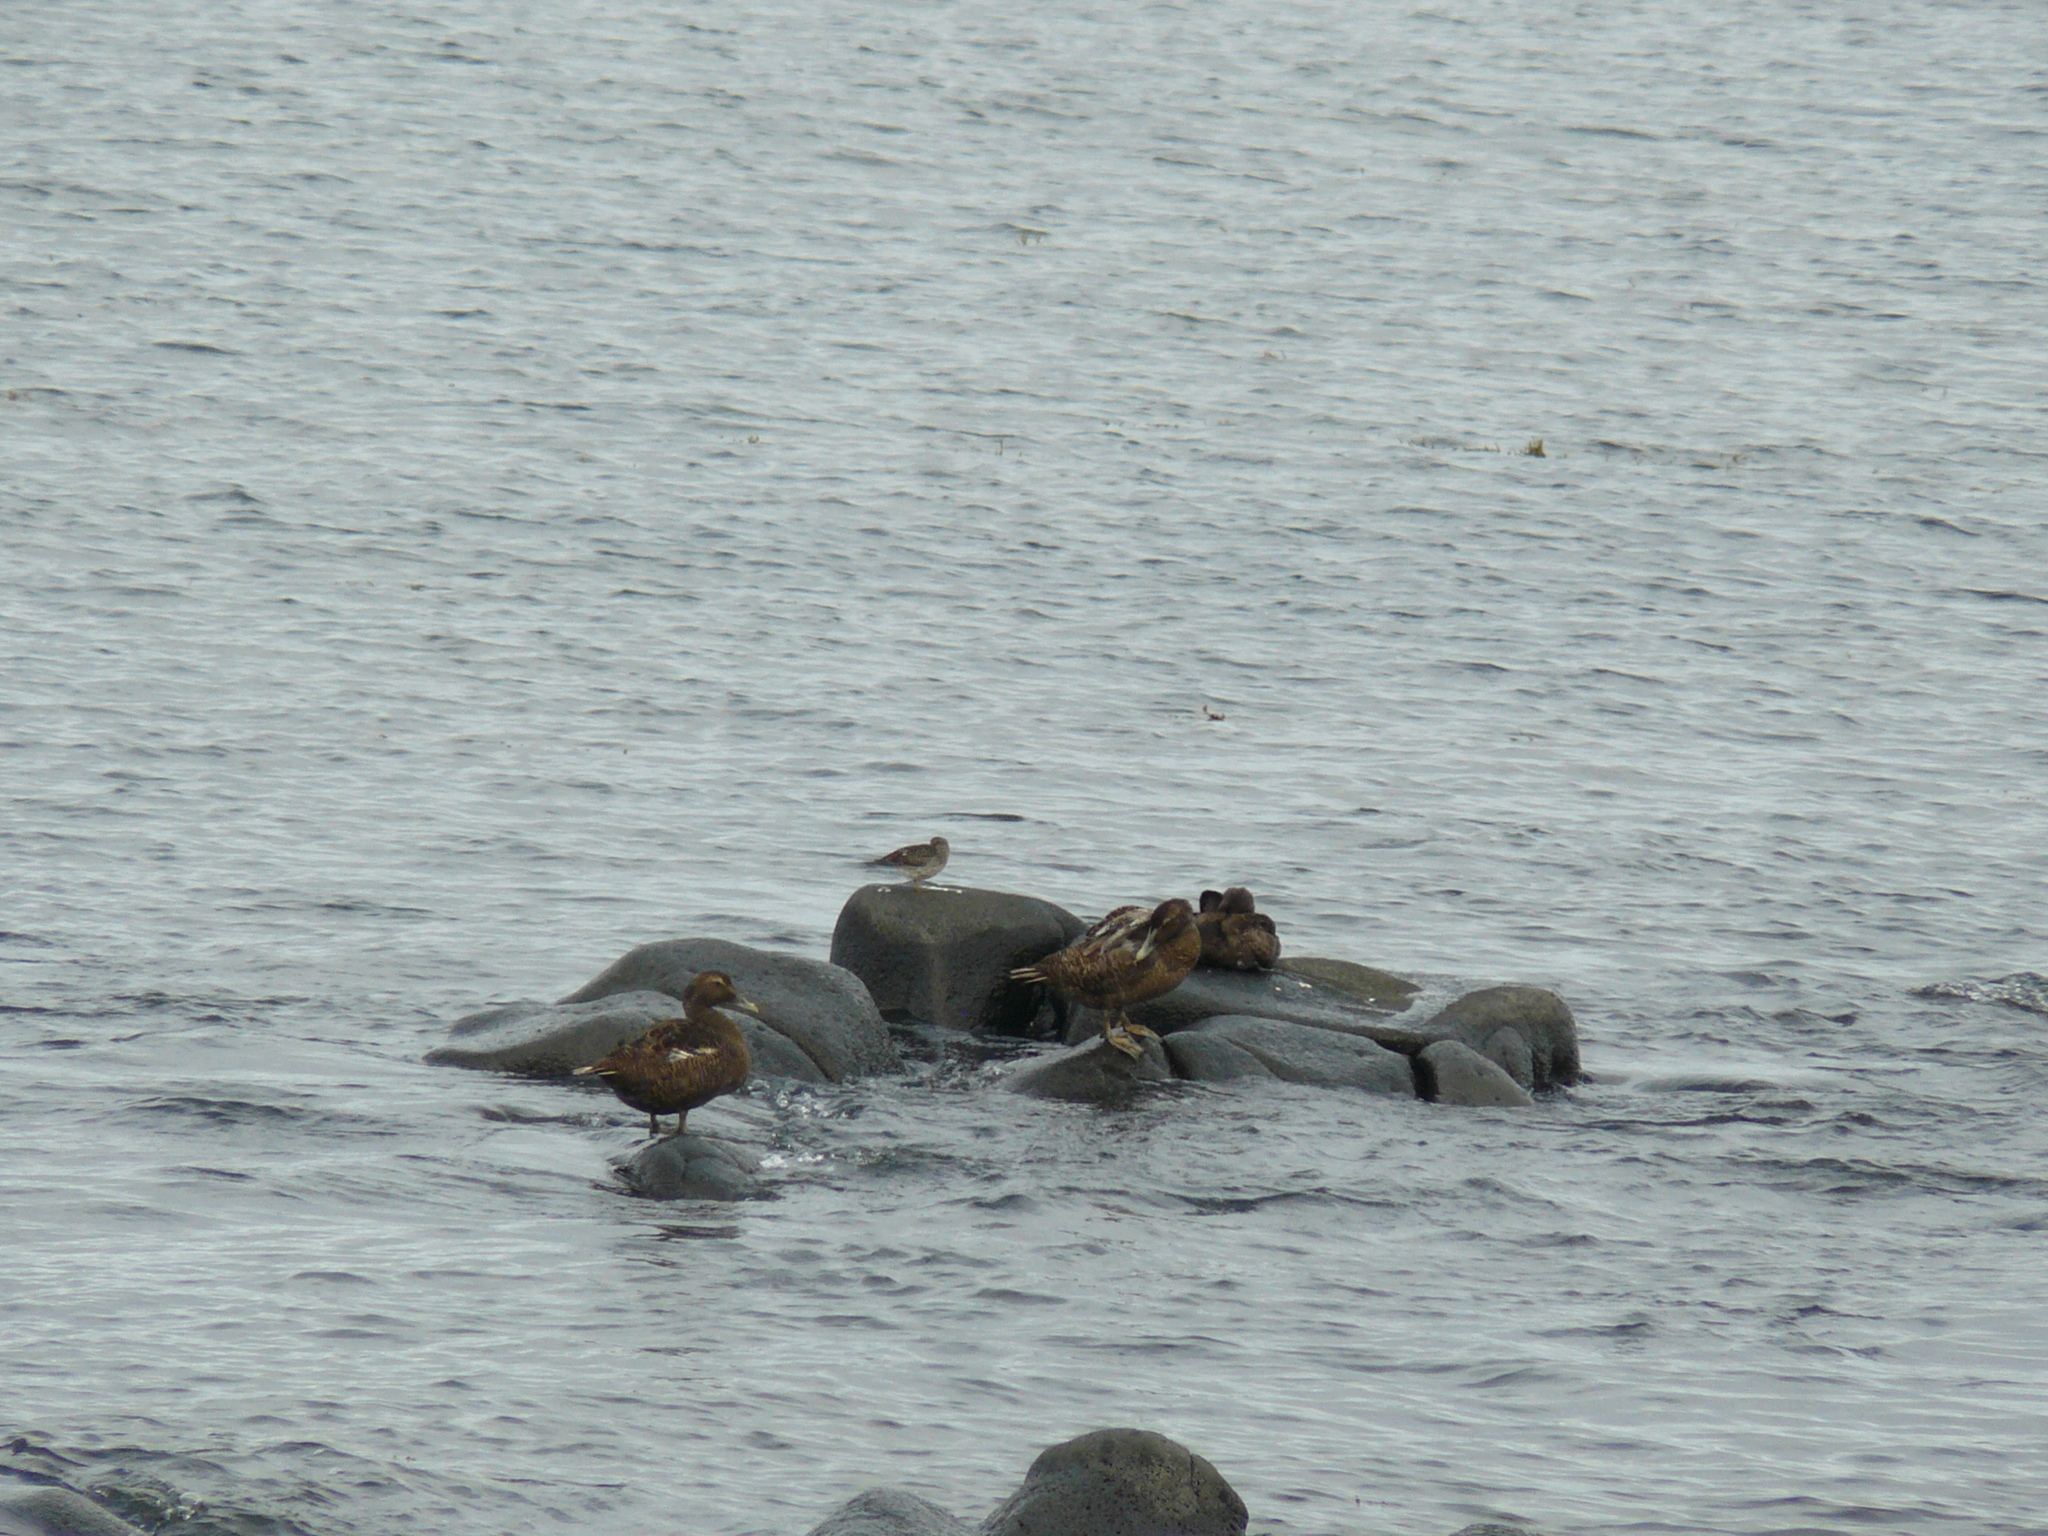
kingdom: Animalia
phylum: Chordata
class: Aves
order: Anseriformes
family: Anatidae
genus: Somateria
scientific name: Somateria mollissima
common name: Common eider
